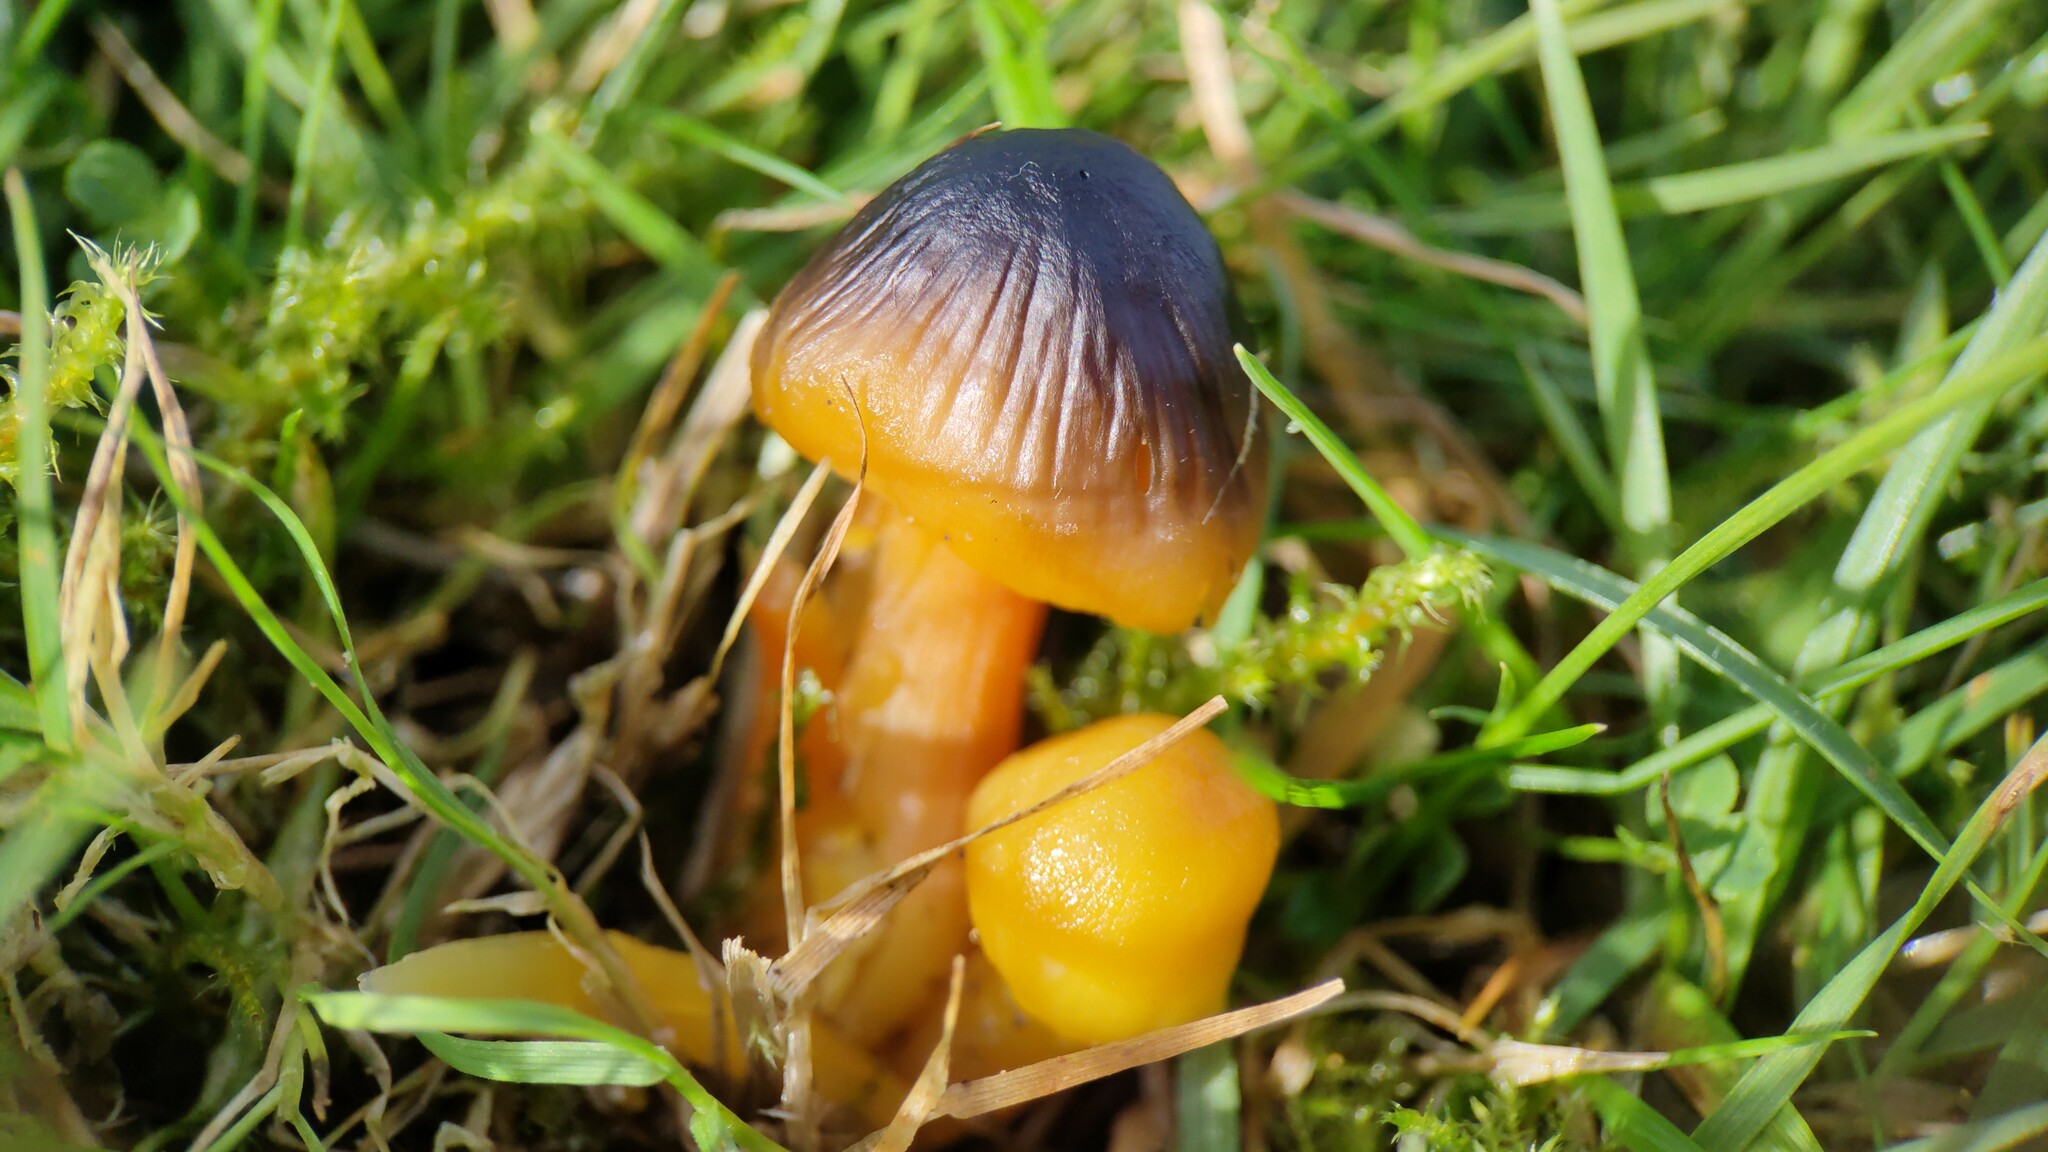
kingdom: Fungi
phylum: Basidiomycota
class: Agaricomycetes
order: Agaricales
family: Hygrophoraceae
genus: Hygrocybe
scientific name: Hygrocybe quieta
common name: Oily waxcap
